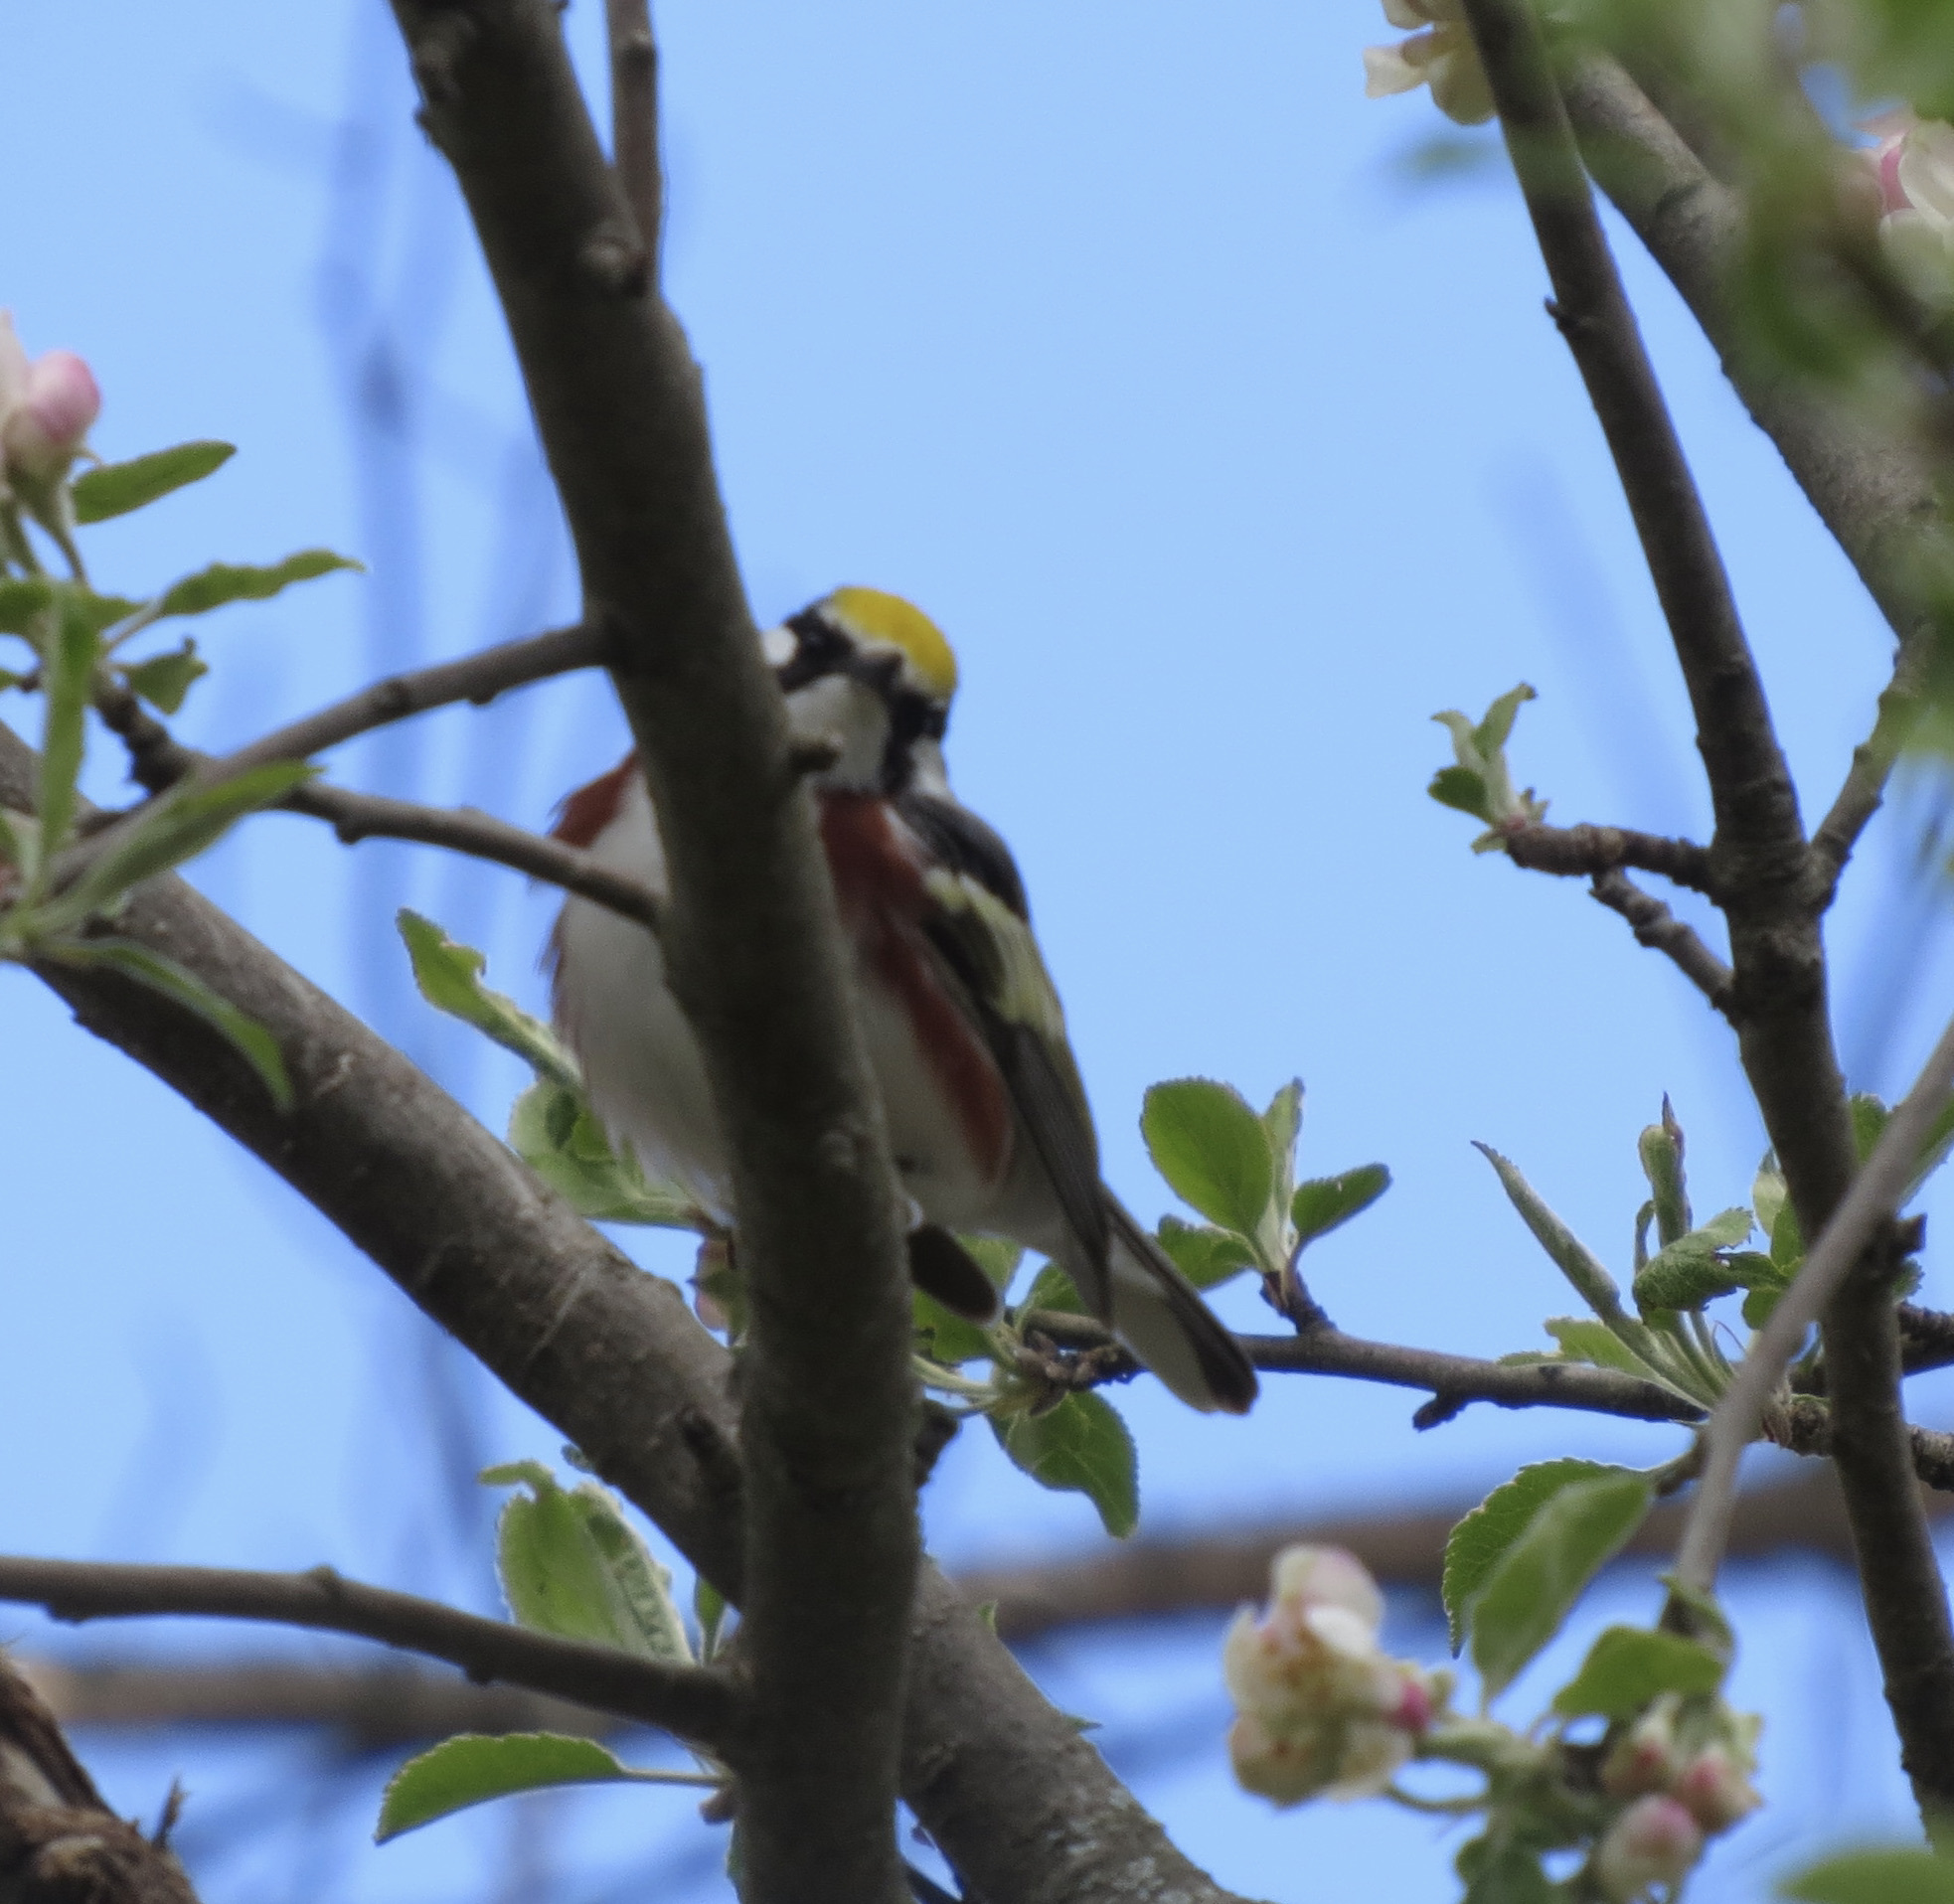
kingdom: Animalia
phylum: Chordata
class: Aves
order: Passeriformes
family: Parulidae
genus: Setophaga
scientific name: Setophaga pensylvanica
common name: Chestnut-sided warbler
